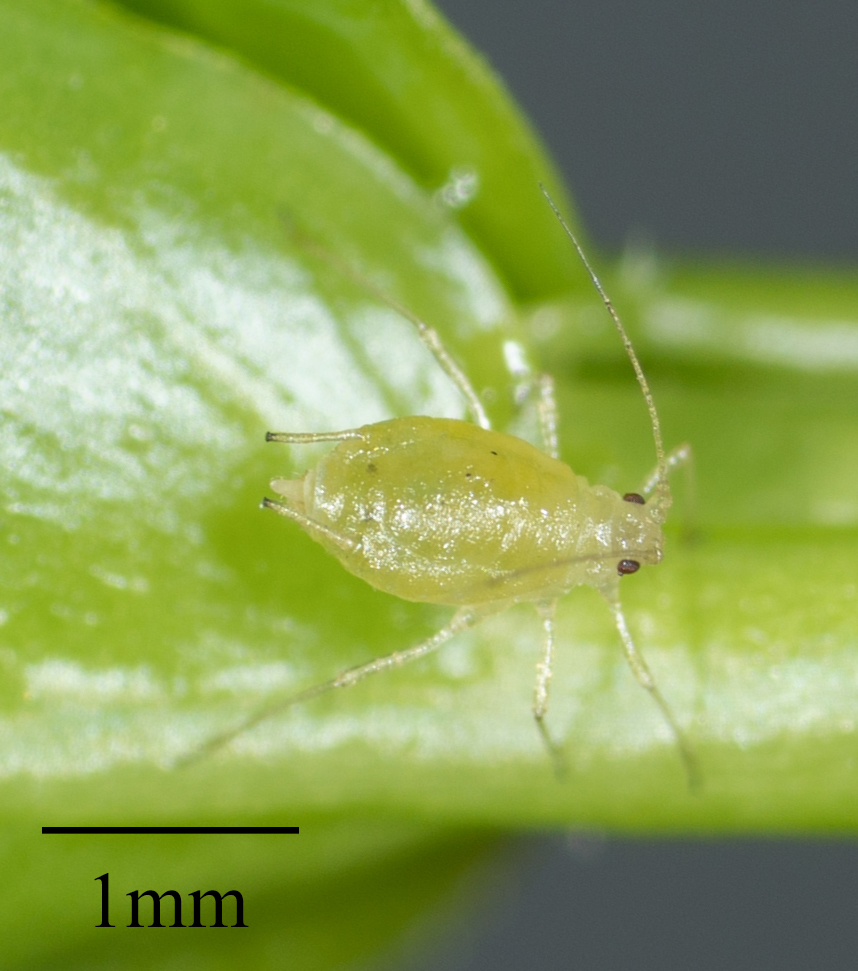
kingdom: Animalia
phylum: Arthropoda
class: Insecta
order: Hemiptera
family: Aphididae
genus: Myzus
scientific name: Myzus persicae
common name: Green peach aphid
